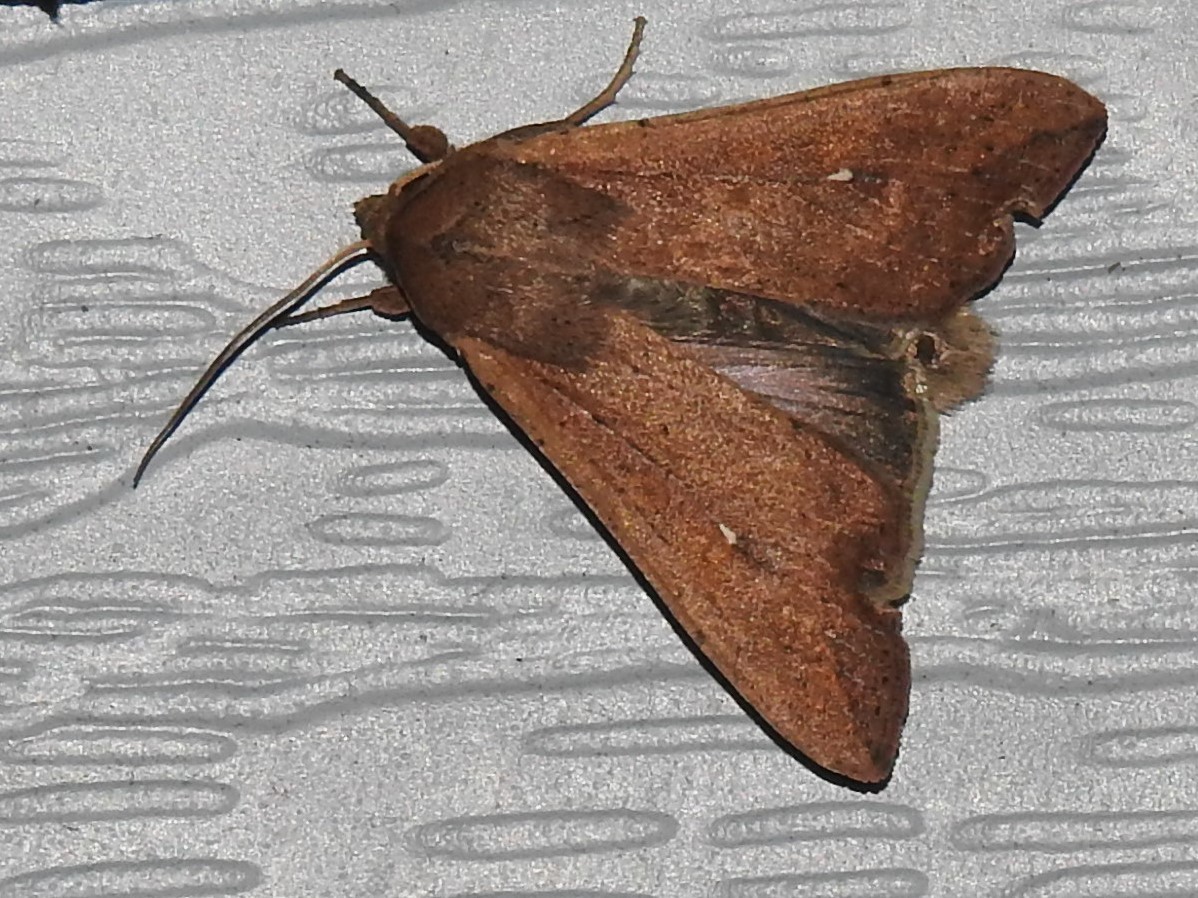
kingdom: Animalia
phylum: Arthropoda
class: Insecta
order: Lepidoptera
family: Noctuidae
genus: Mythimna
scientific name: Mythimna unipuncta
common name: White-speck
